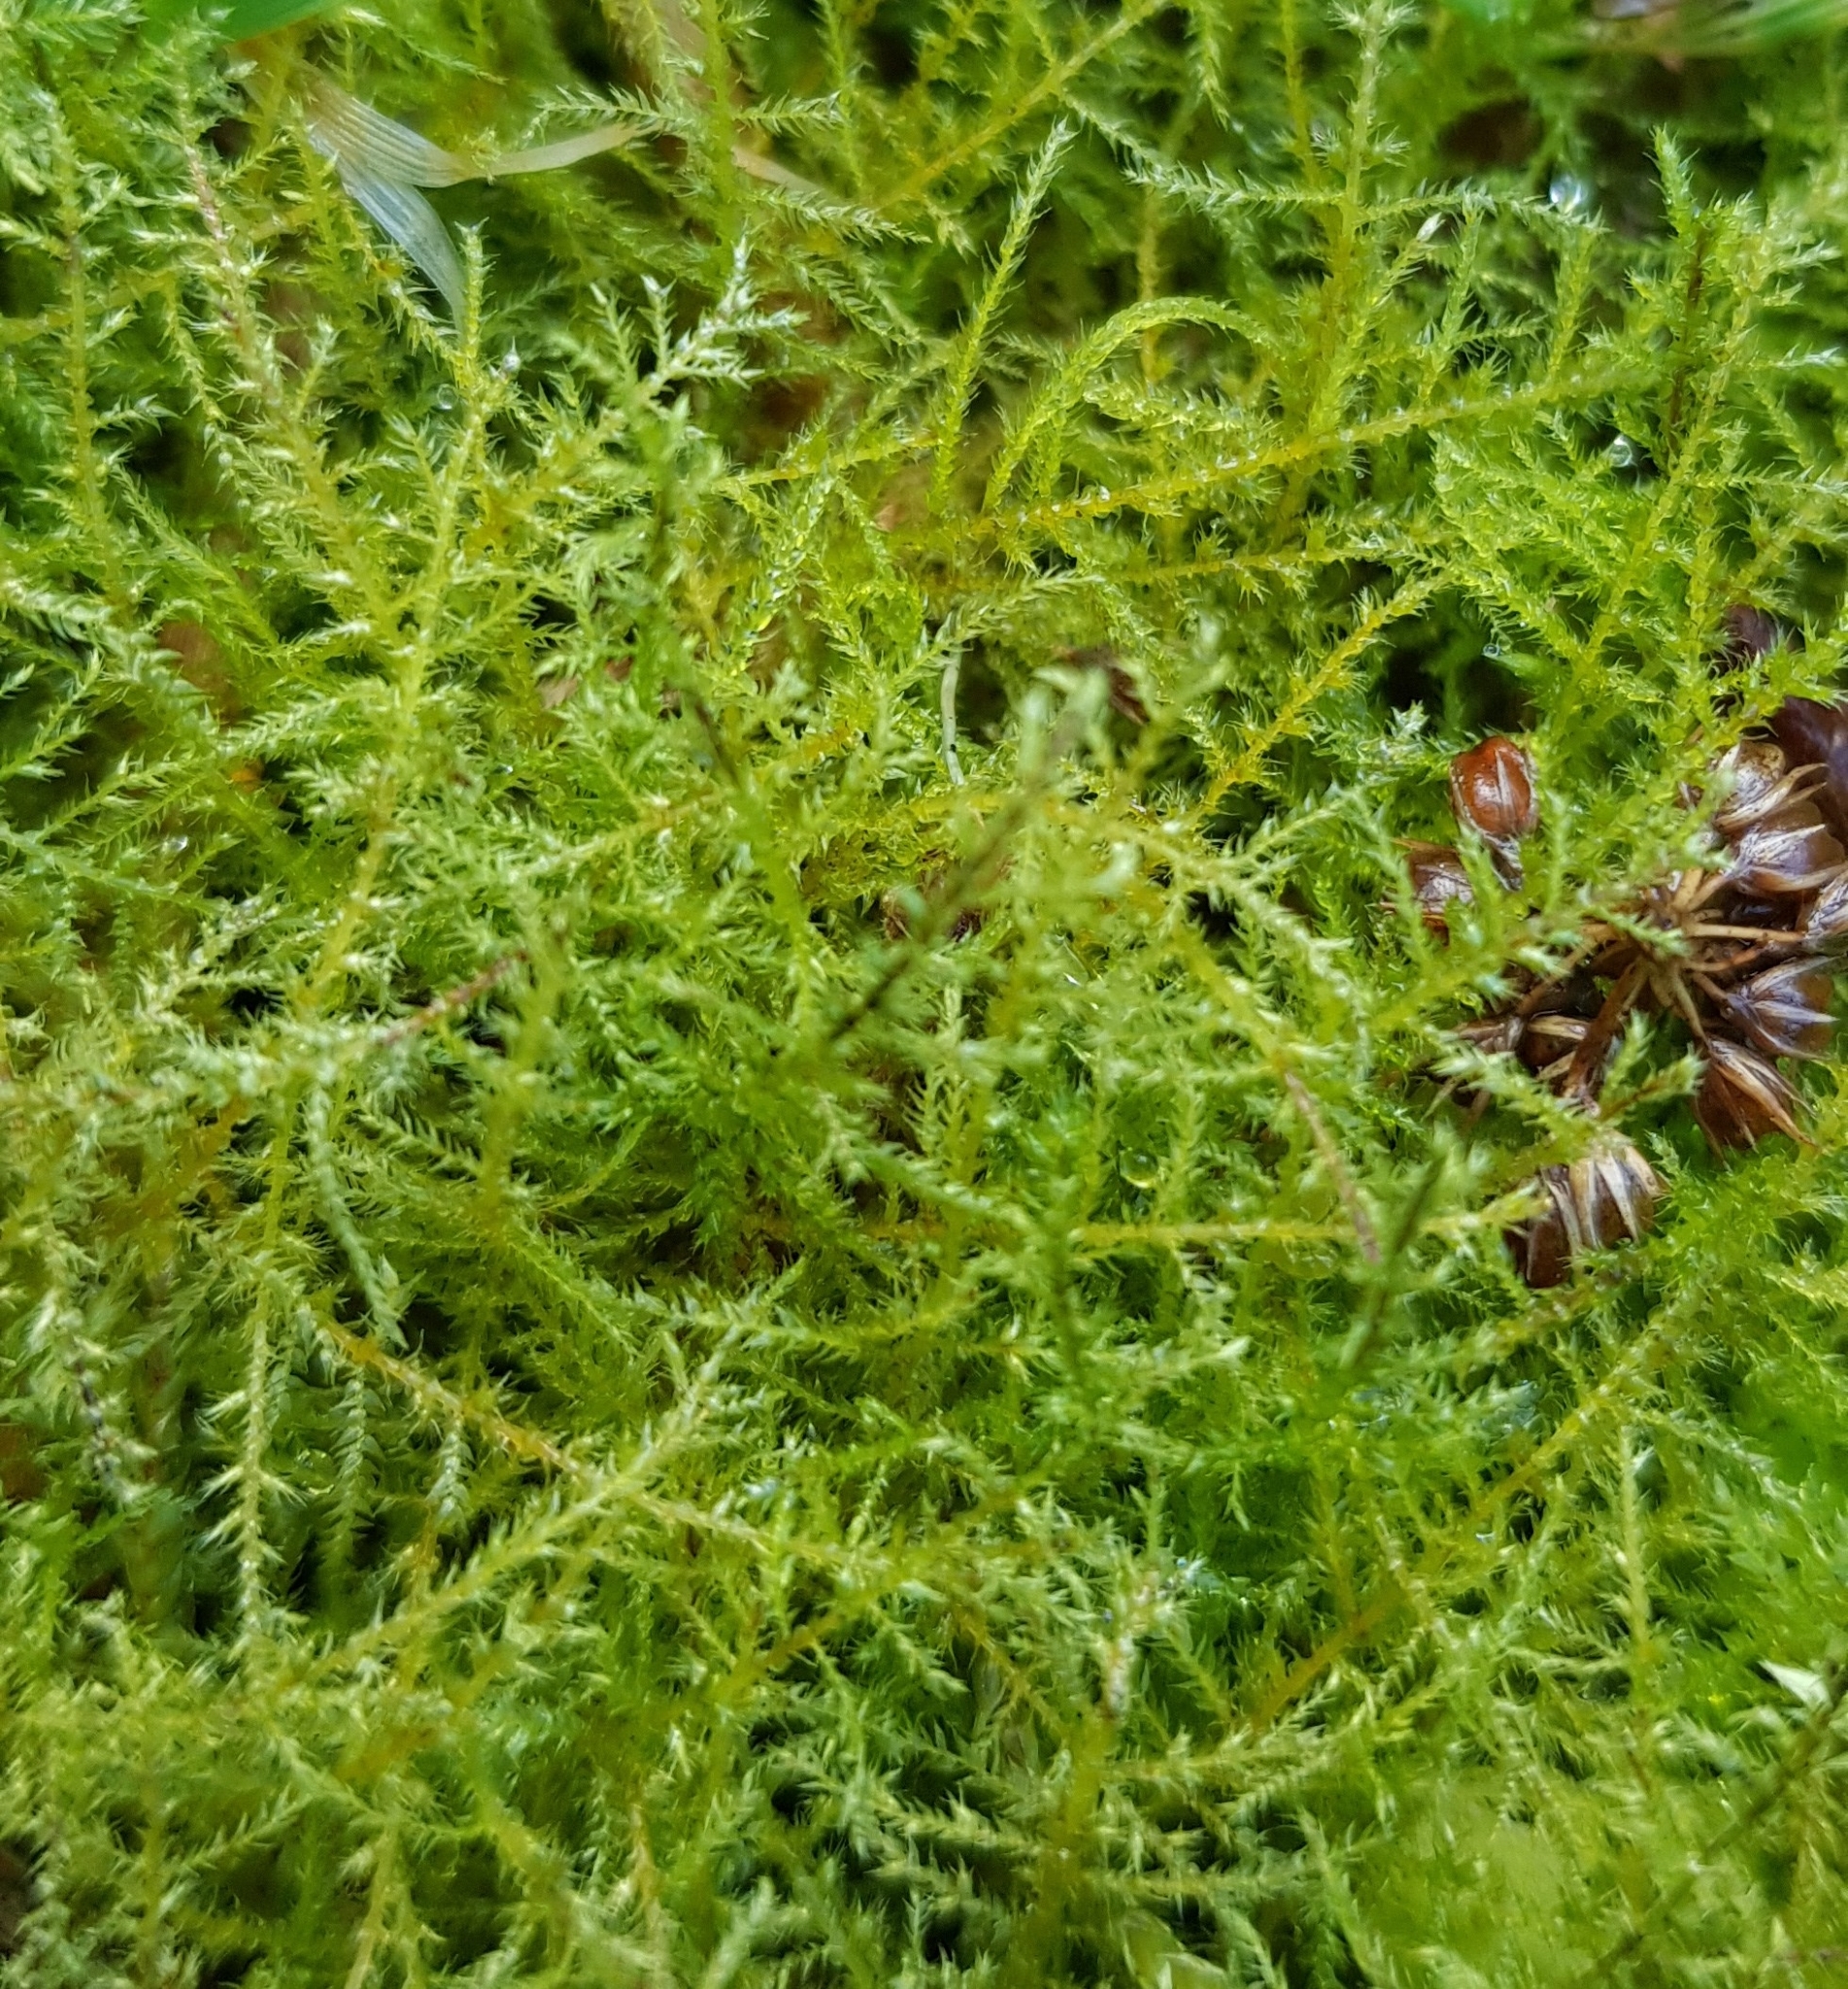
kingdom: Plantae
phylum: Bryophyta
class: Bryopsida
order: Hypnales
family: Brachytheciaceae
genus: Kindbergia
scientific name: Kindbergia praelonga
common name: Slender beaked moss
